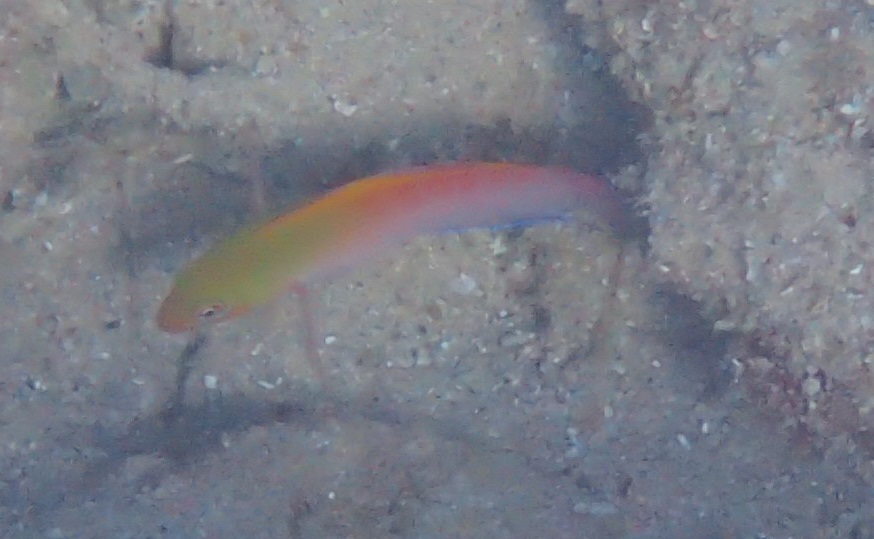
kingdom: Animalia
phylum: Chordata
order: Perciformes
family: Pseudochromidae
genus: Ogilbyina
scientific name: Ogilbyina novaehollandiae
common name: Multicolored dottyback
